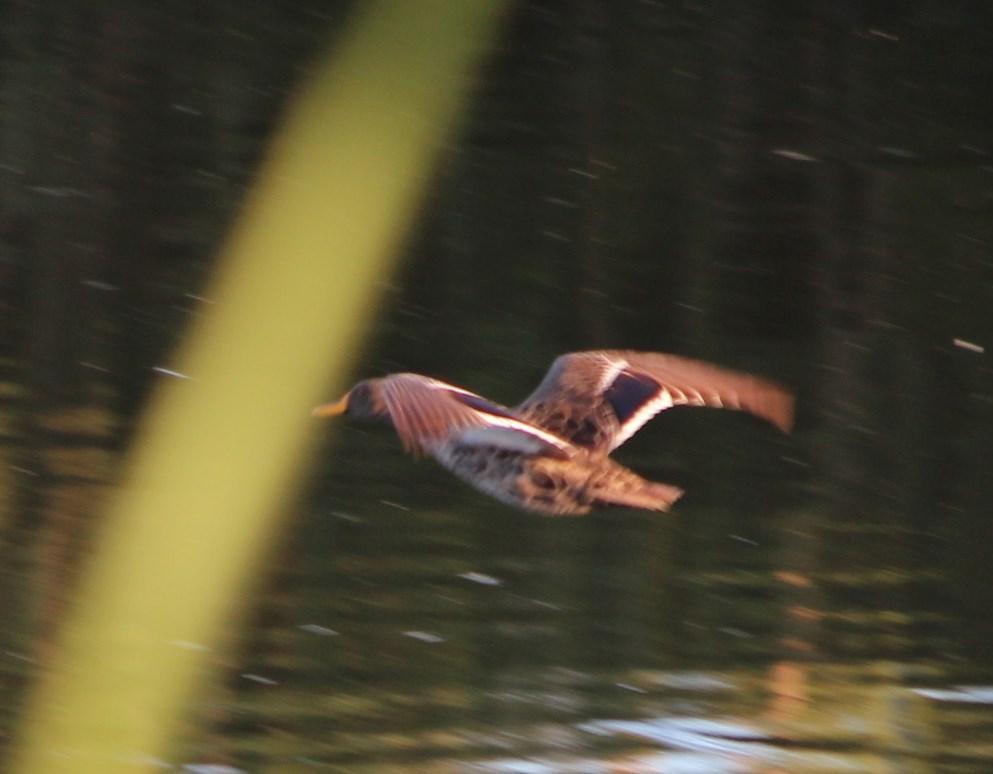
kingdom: Animalia
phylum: Chordata
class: Aves
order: Anseriformes
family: Anatidae
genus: Anas
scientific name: Anas undulata
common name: Yellow-billed duck
